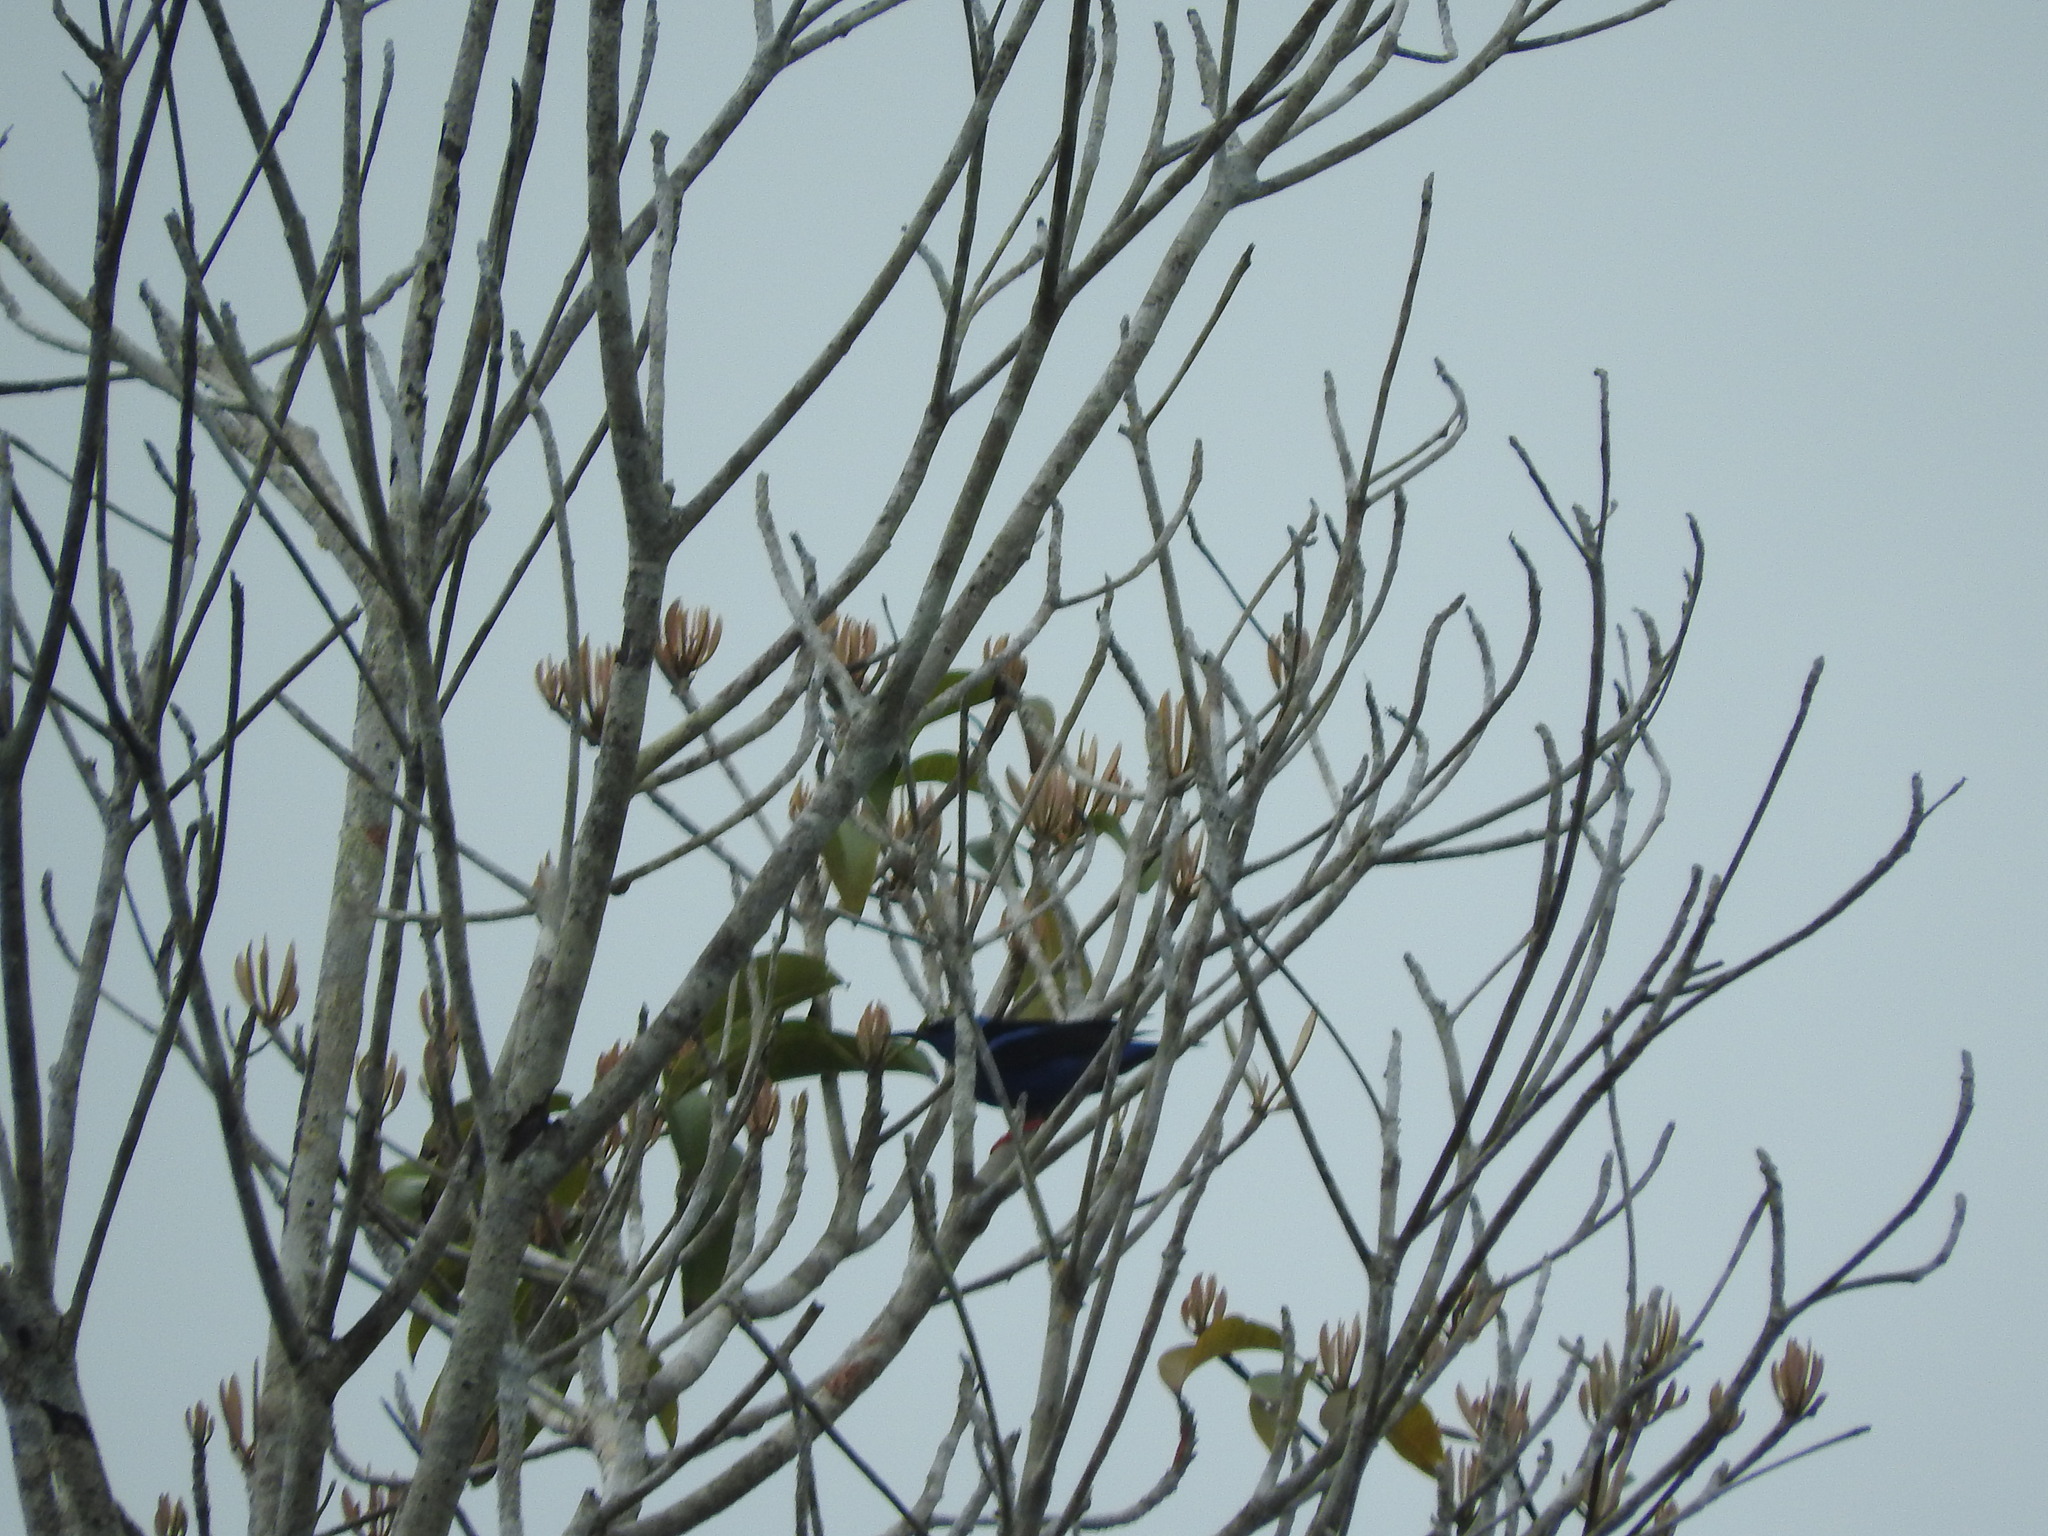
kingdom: Animalia
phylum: Chordata
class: Aves
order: Passeriformes
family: Thraupidae
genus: Cyanerpes
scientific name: Cyanerpes cyaneus
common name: Red-legged honeycreeper
